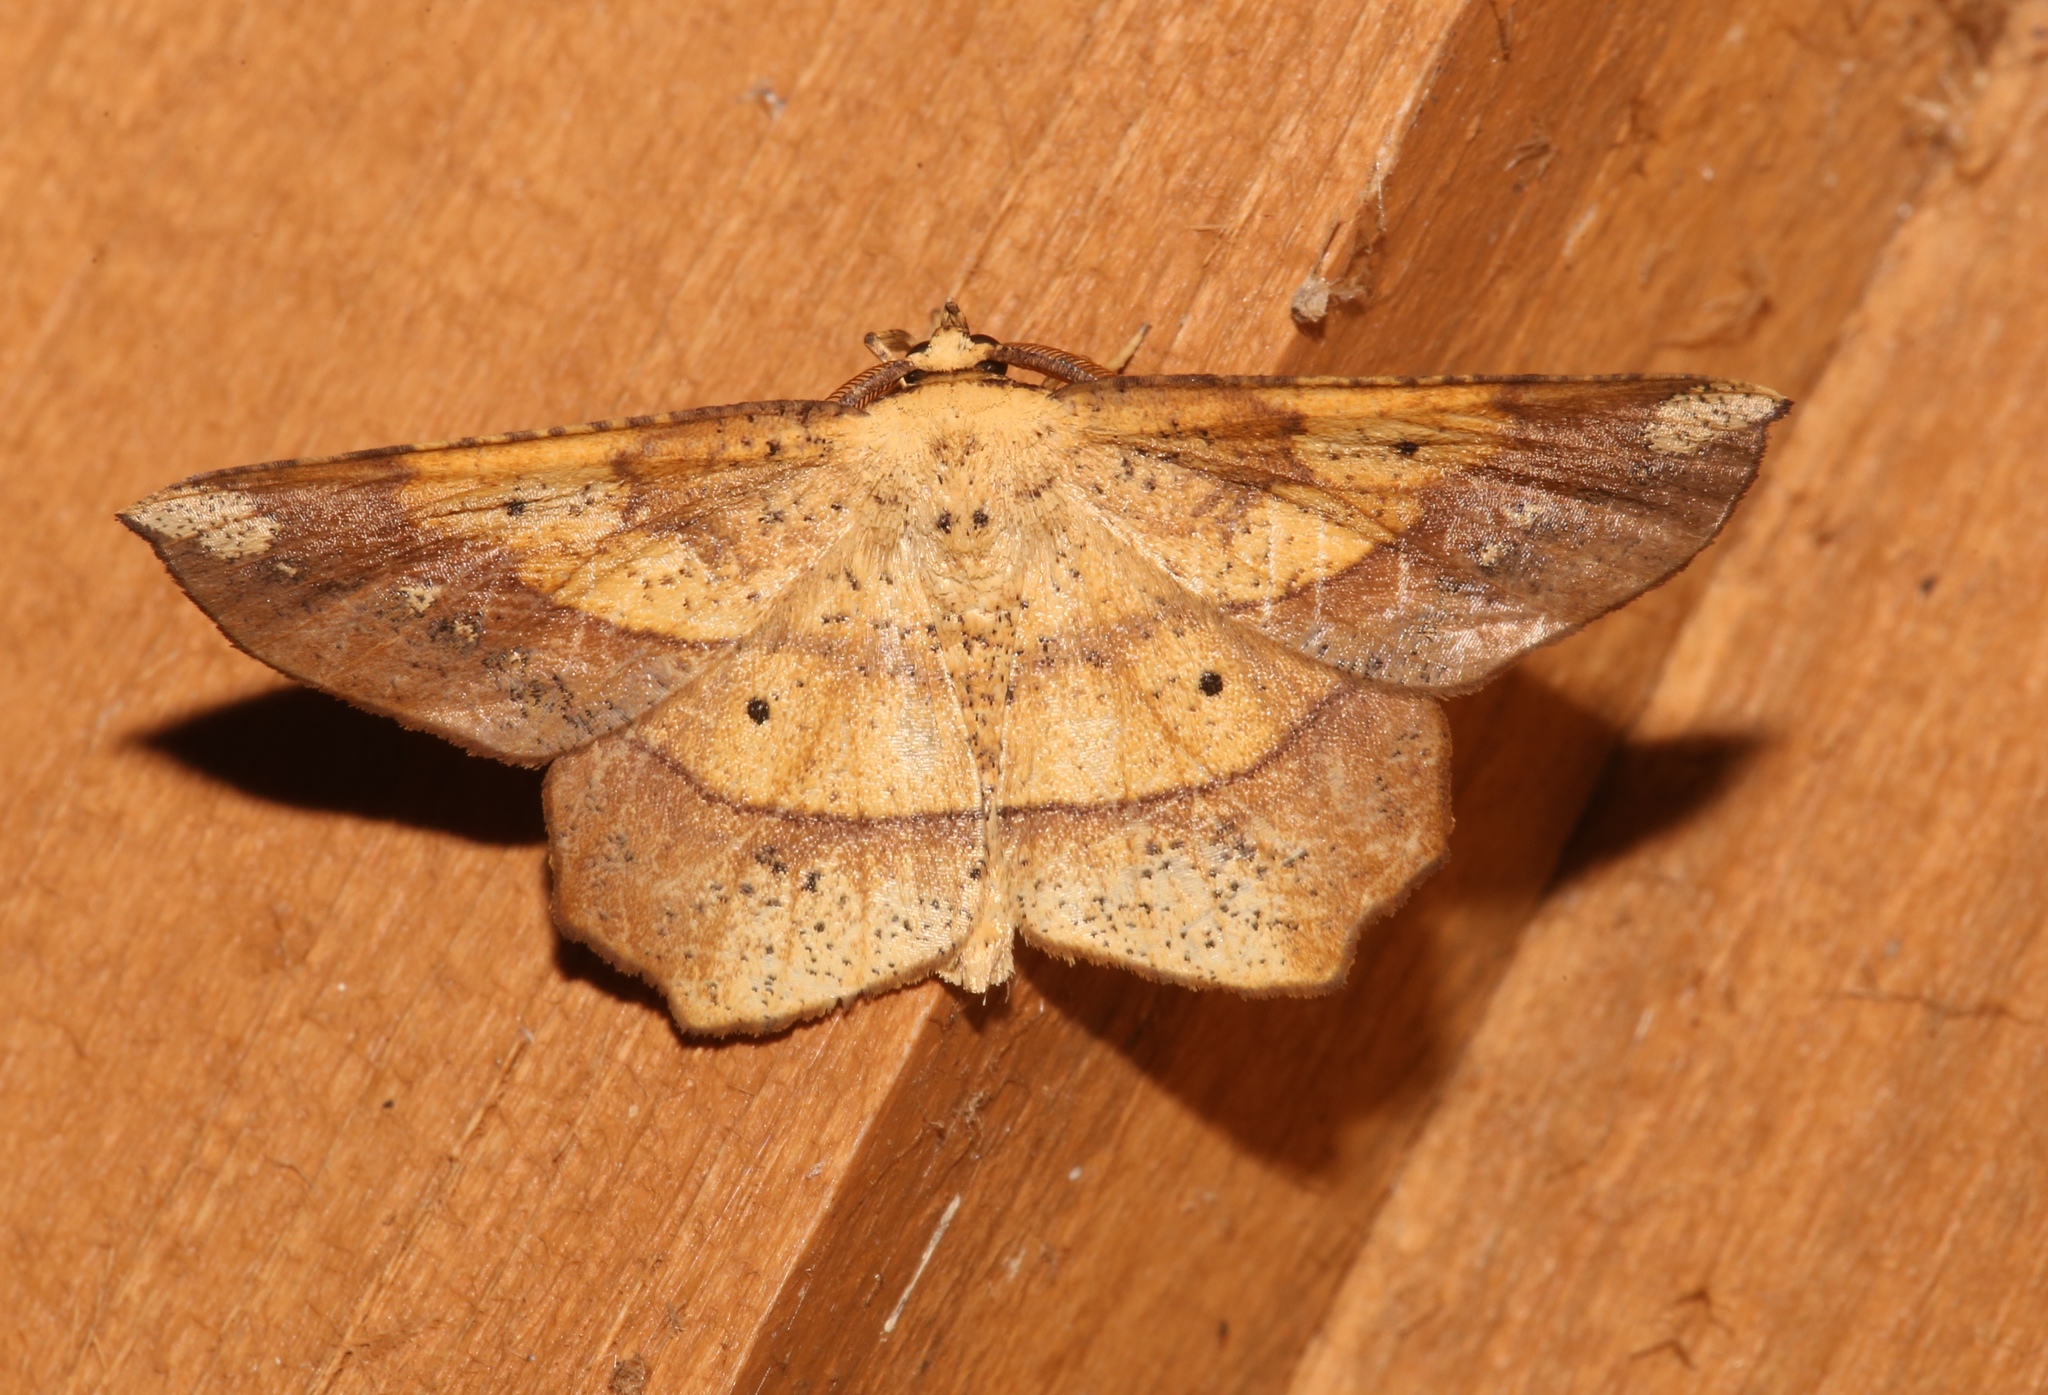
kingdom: Animalia
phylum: Arthropoda
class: Insecta
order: Lepidoptera
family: Geometridae
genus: Euchlaena
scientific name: Euchlaena amoenaria
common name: Deep yellow euchlaena
